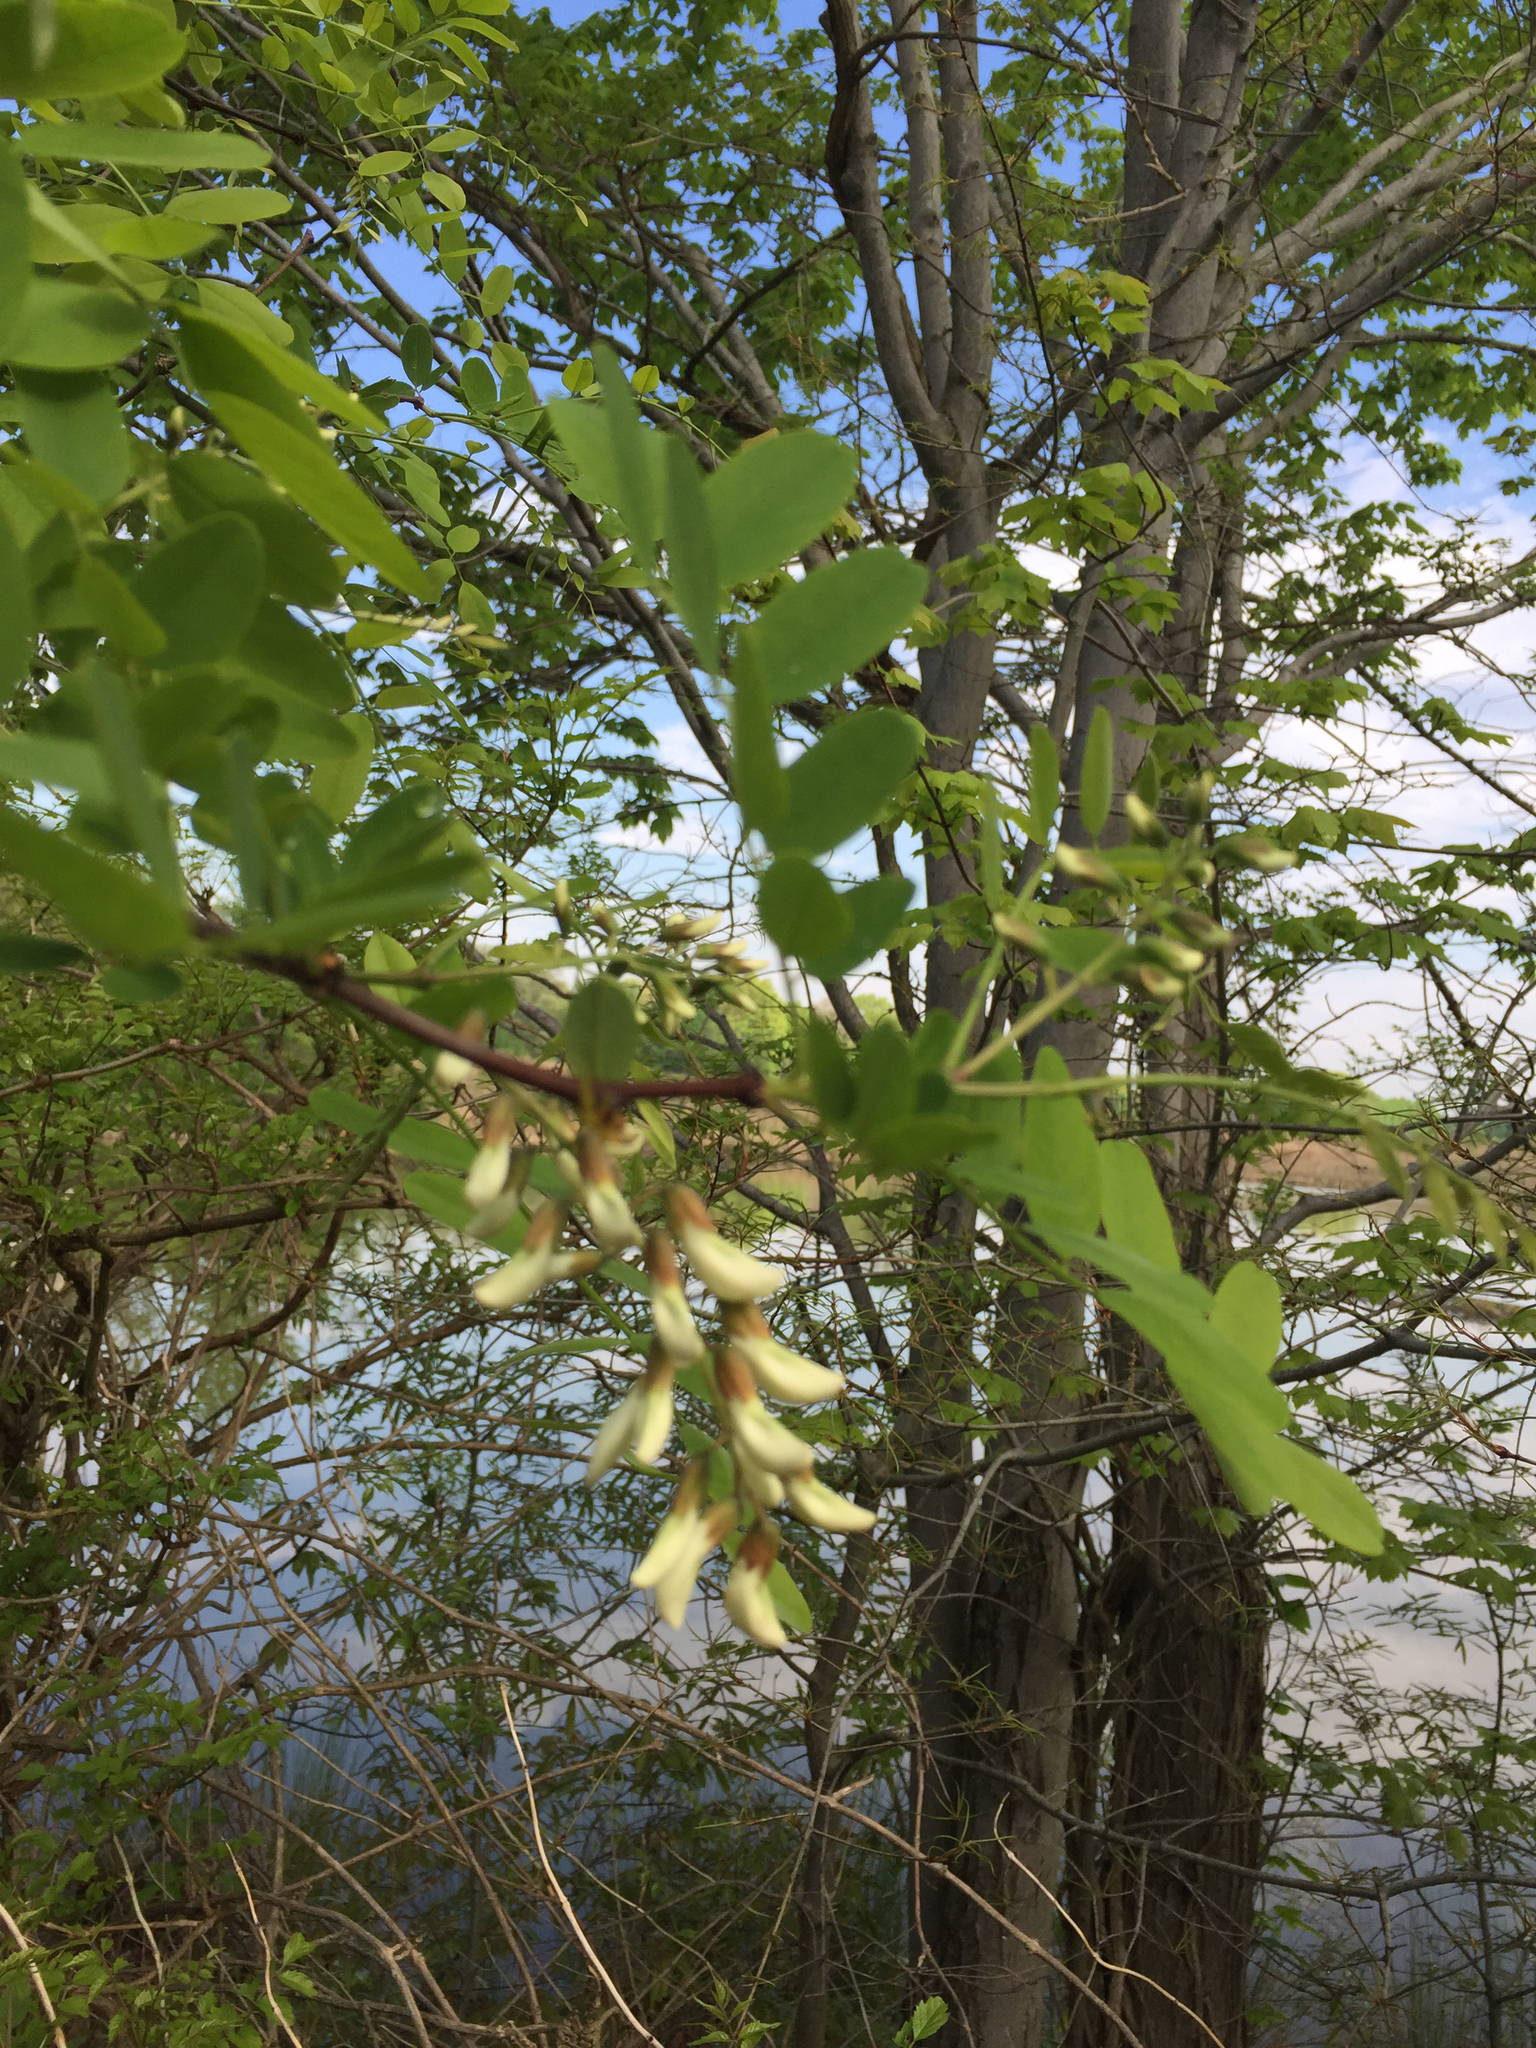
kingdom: Plantae
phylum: Tracheophyta
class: Magnoliopsida
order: Fabales
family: Fabaceae
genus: Robinia
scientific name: Robinia pseudoacacia
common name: Black locust
